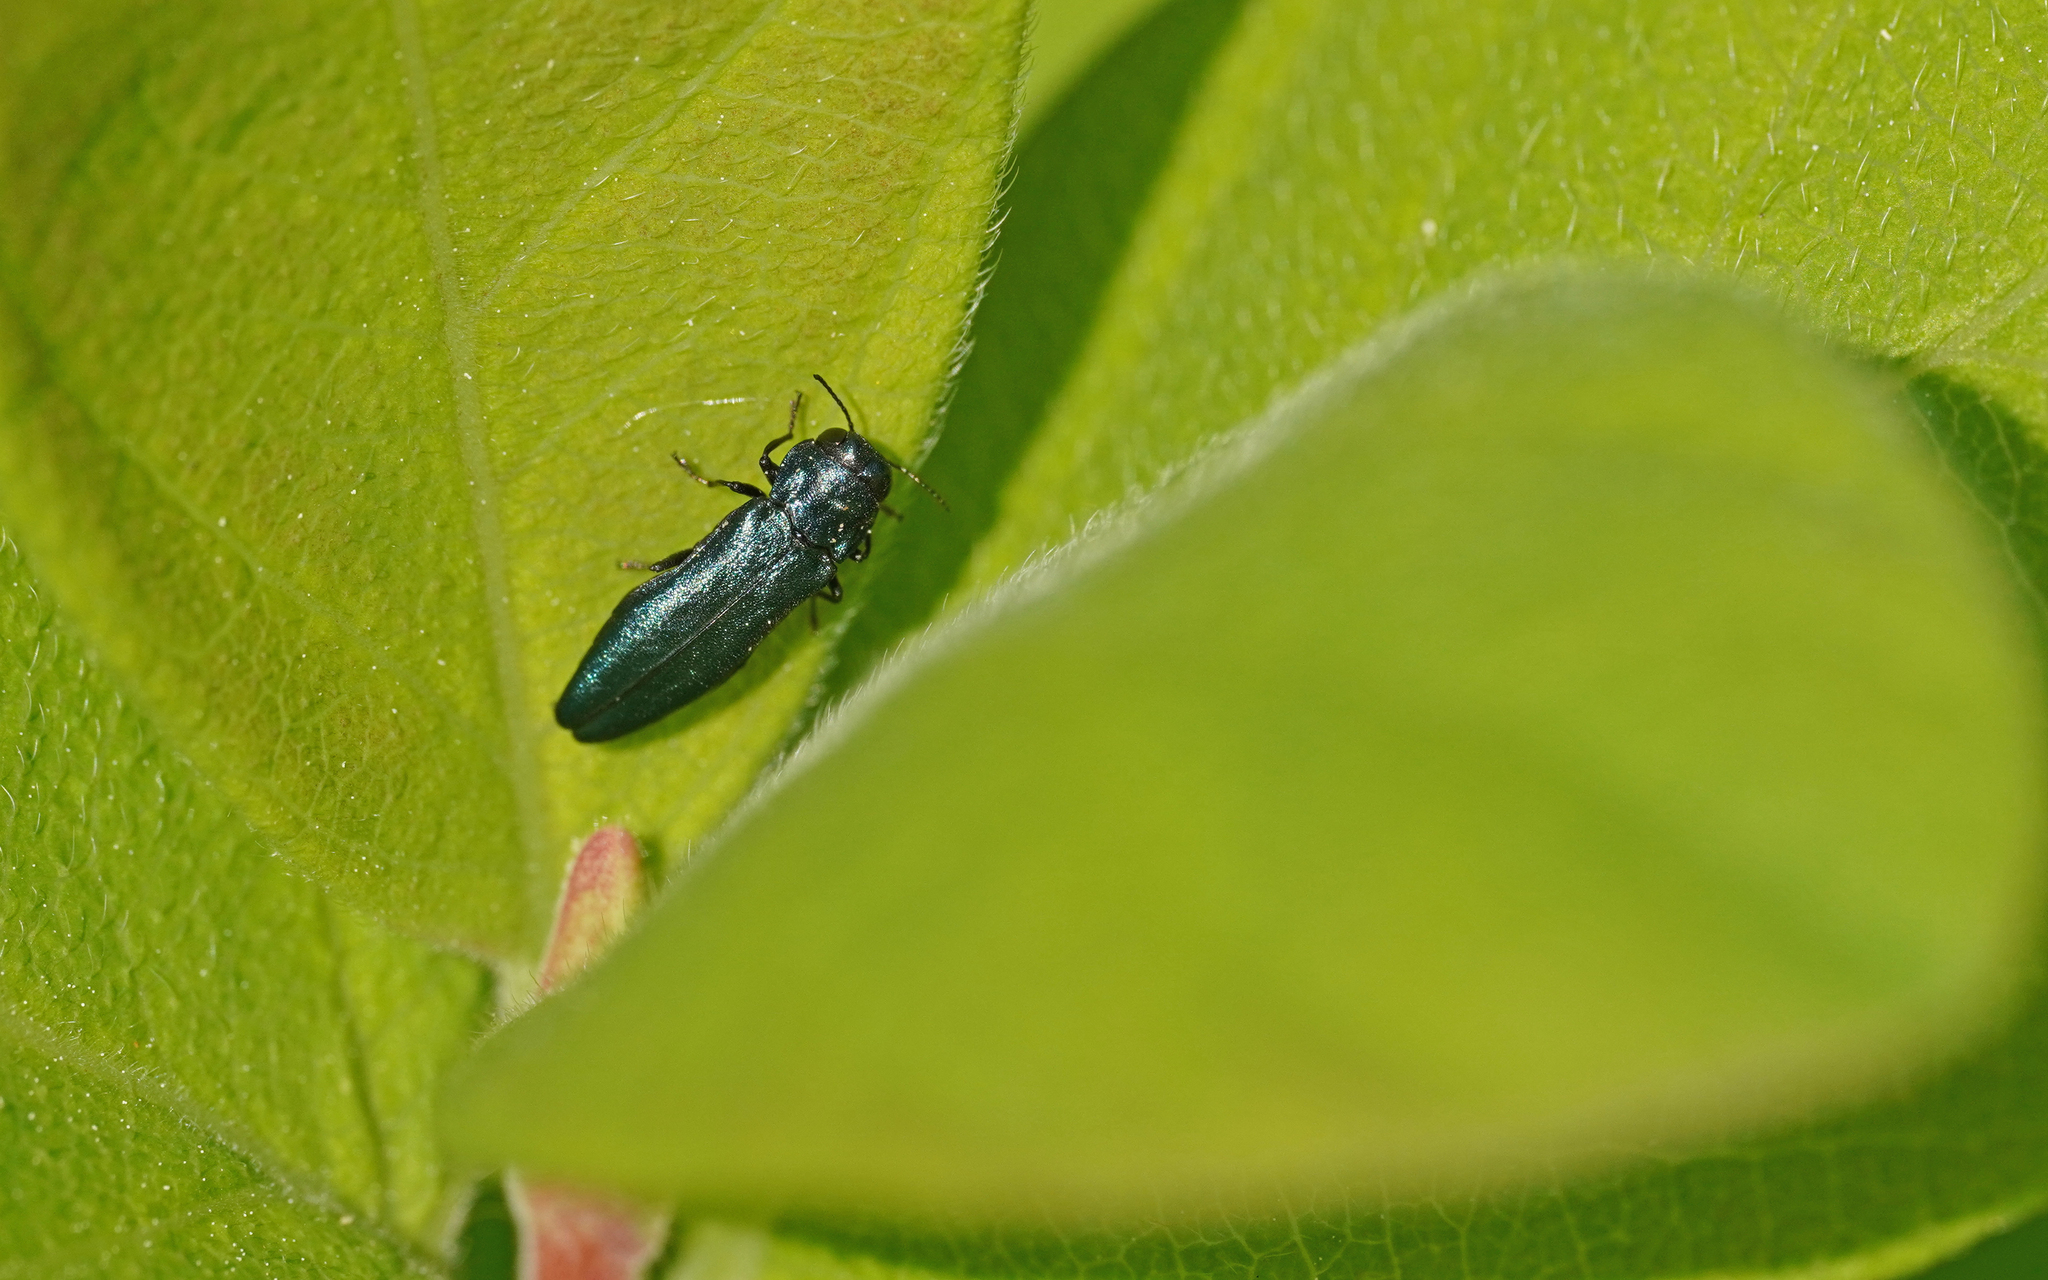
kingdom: Animalia
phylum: Arthropoda
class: Insecta
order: Coleoptera
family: Buprestidae
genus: Agrilus
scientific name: Agrilus cyanescens
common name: Bluish borer beetle
